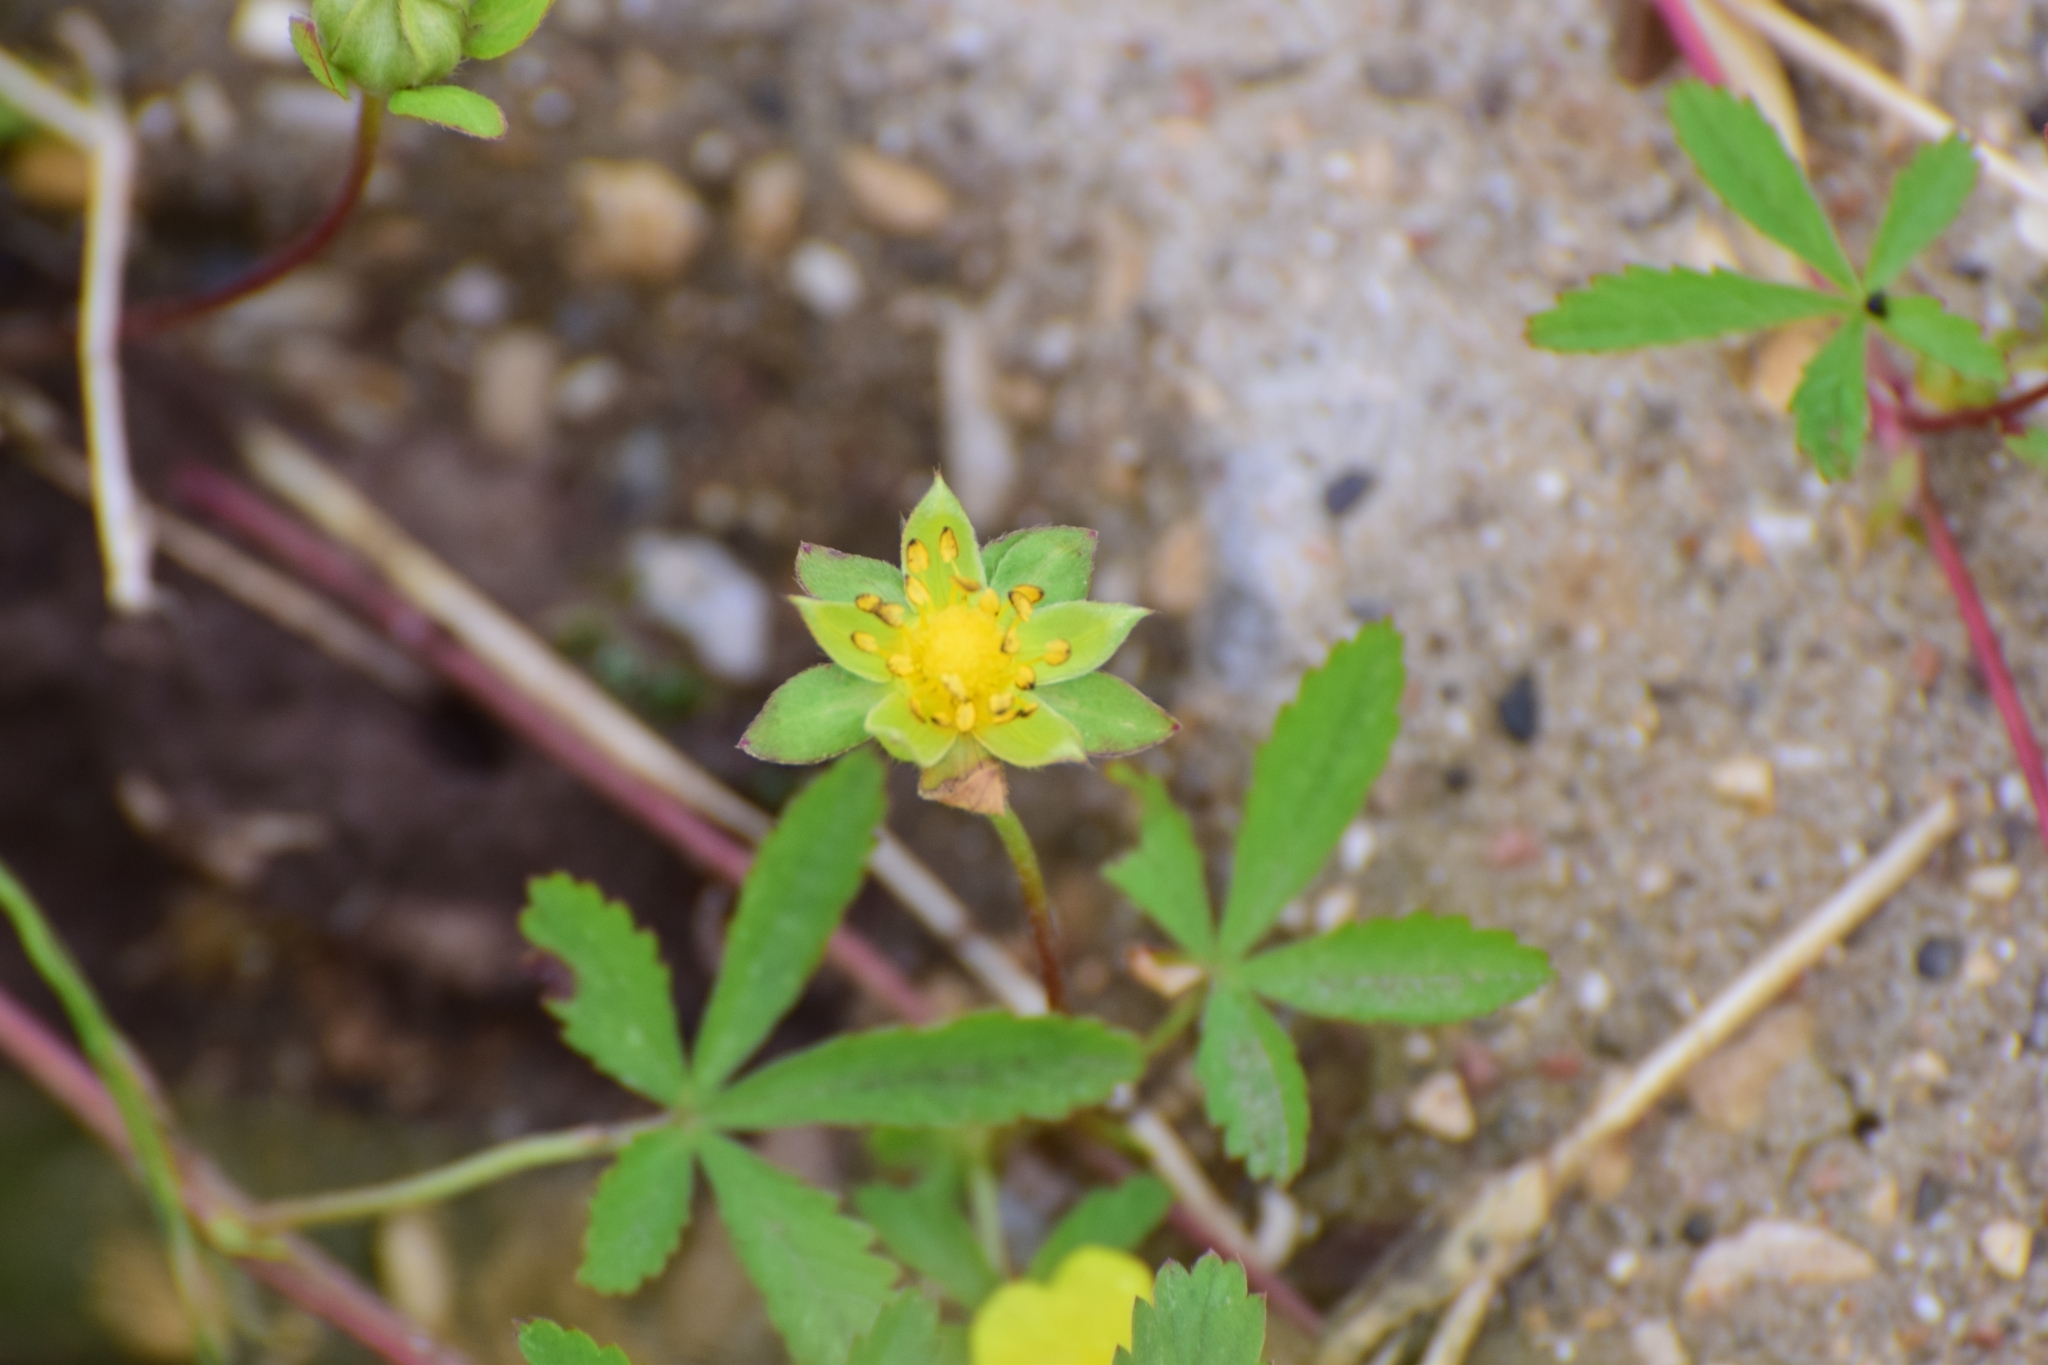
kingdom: Plantae
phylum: Tracheophyta
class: Magnoliopsida
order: Rosales
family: Rosaceae
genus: Potentilla
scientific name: Potentilla reptans
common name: Creeping cinquefoil
